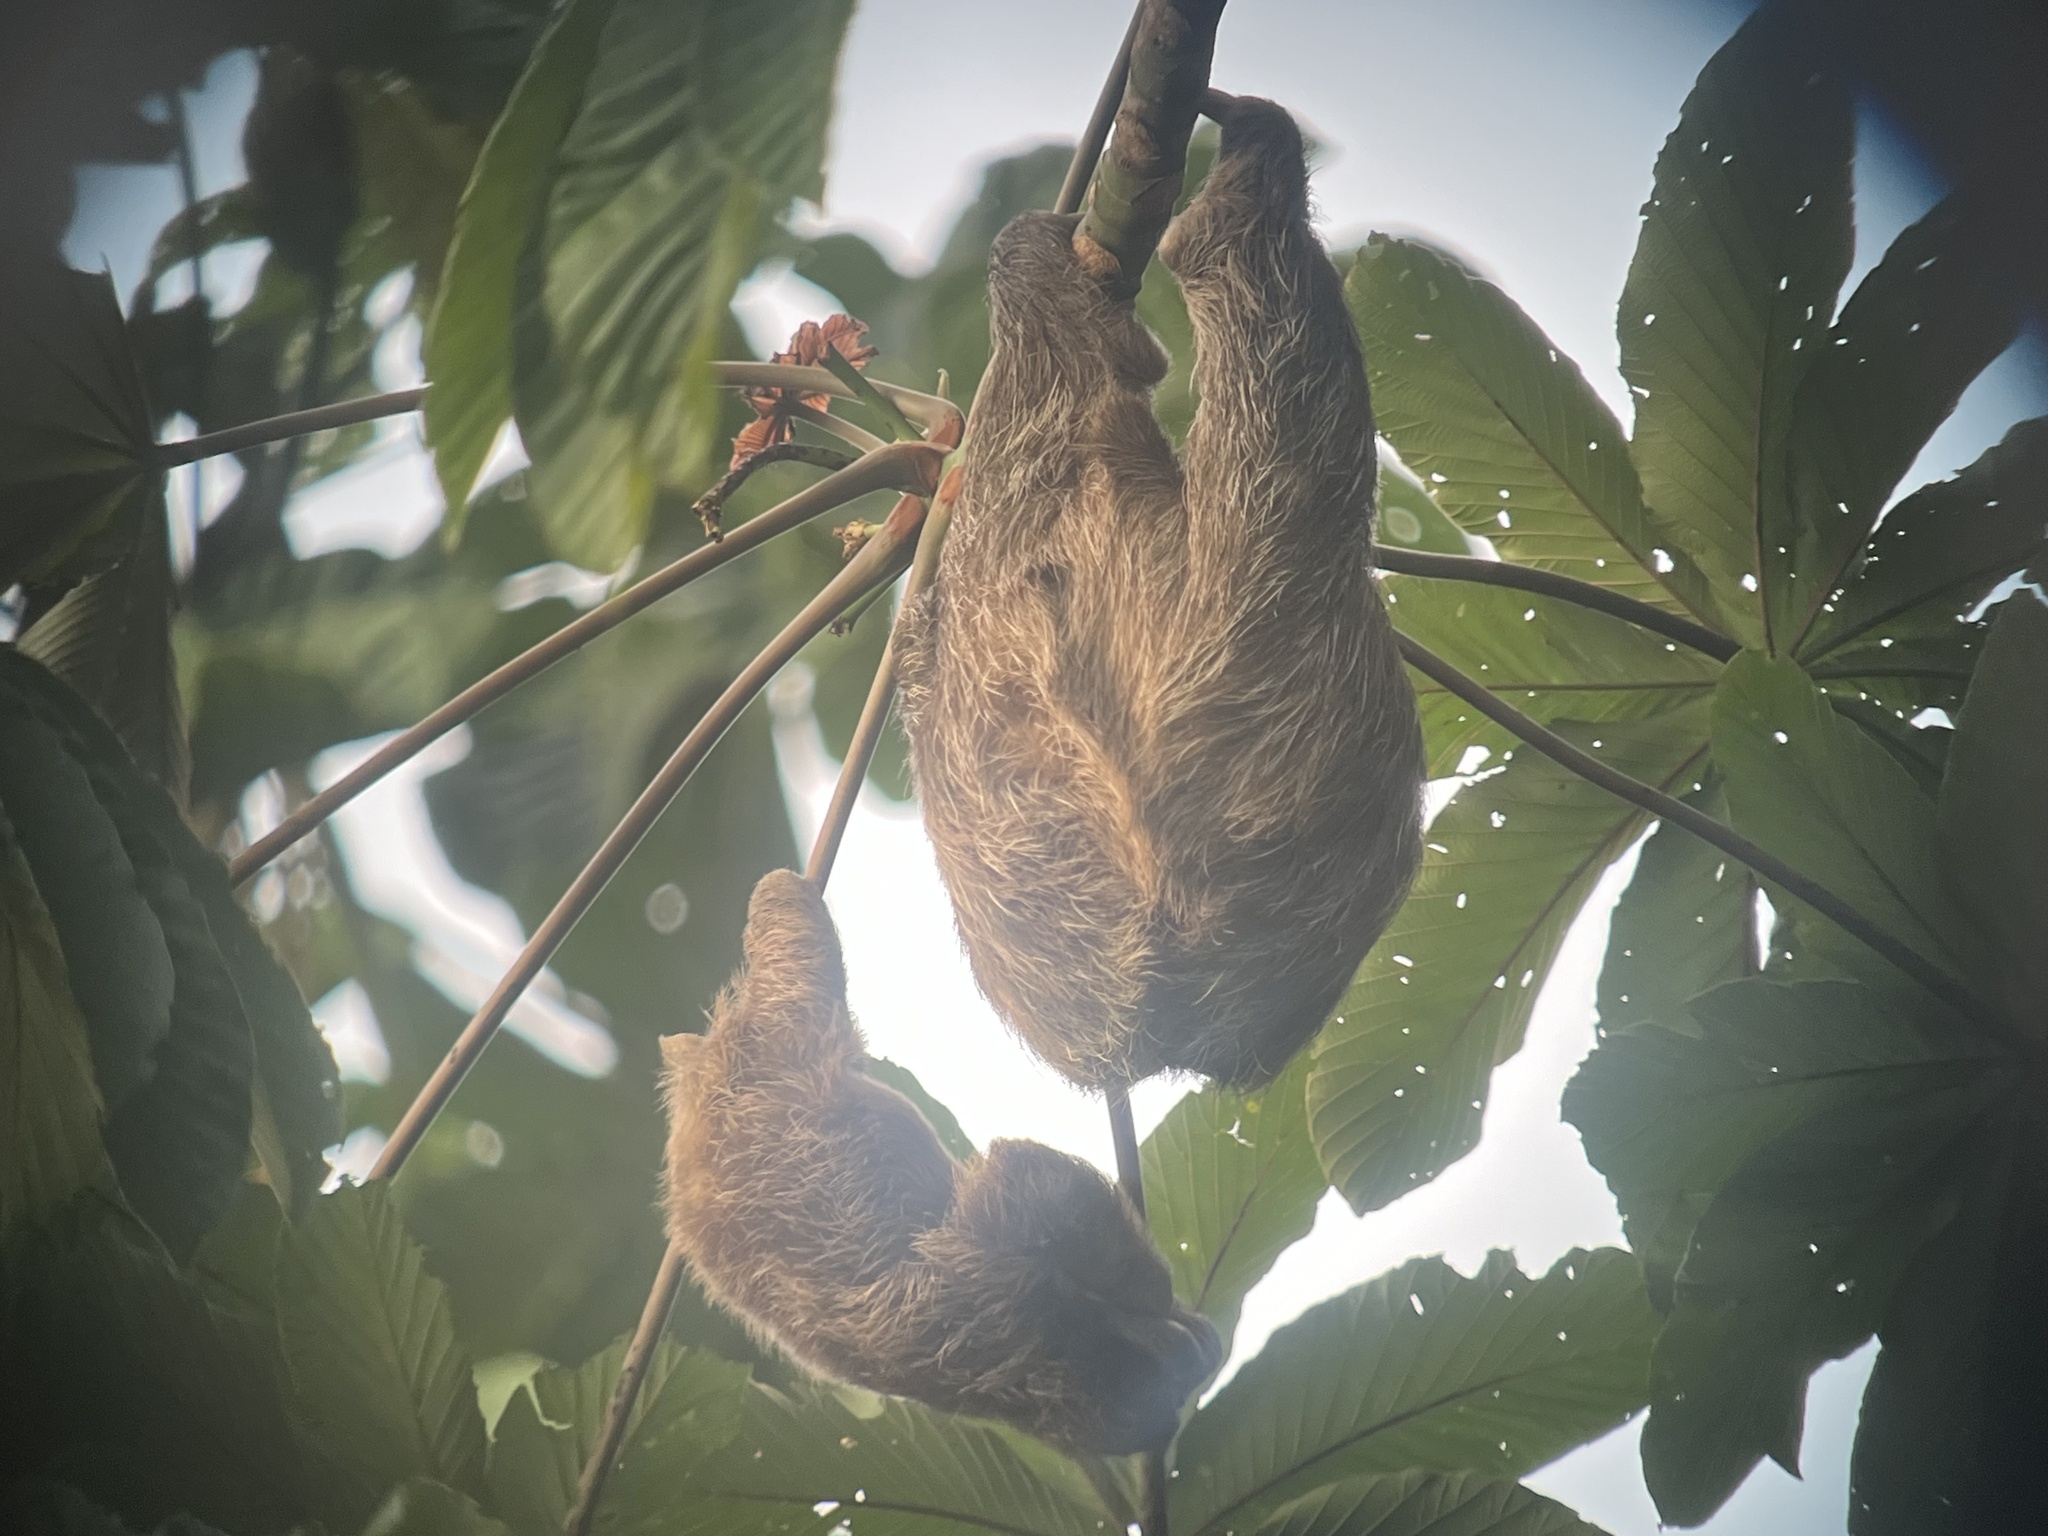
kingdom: Animalia
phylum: Chordata
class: Mammalia
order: Pilosa
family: Bradypodidae
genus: Bradypus
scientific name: Bradypus variegatus
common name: Brown-throated three-toed sloth
